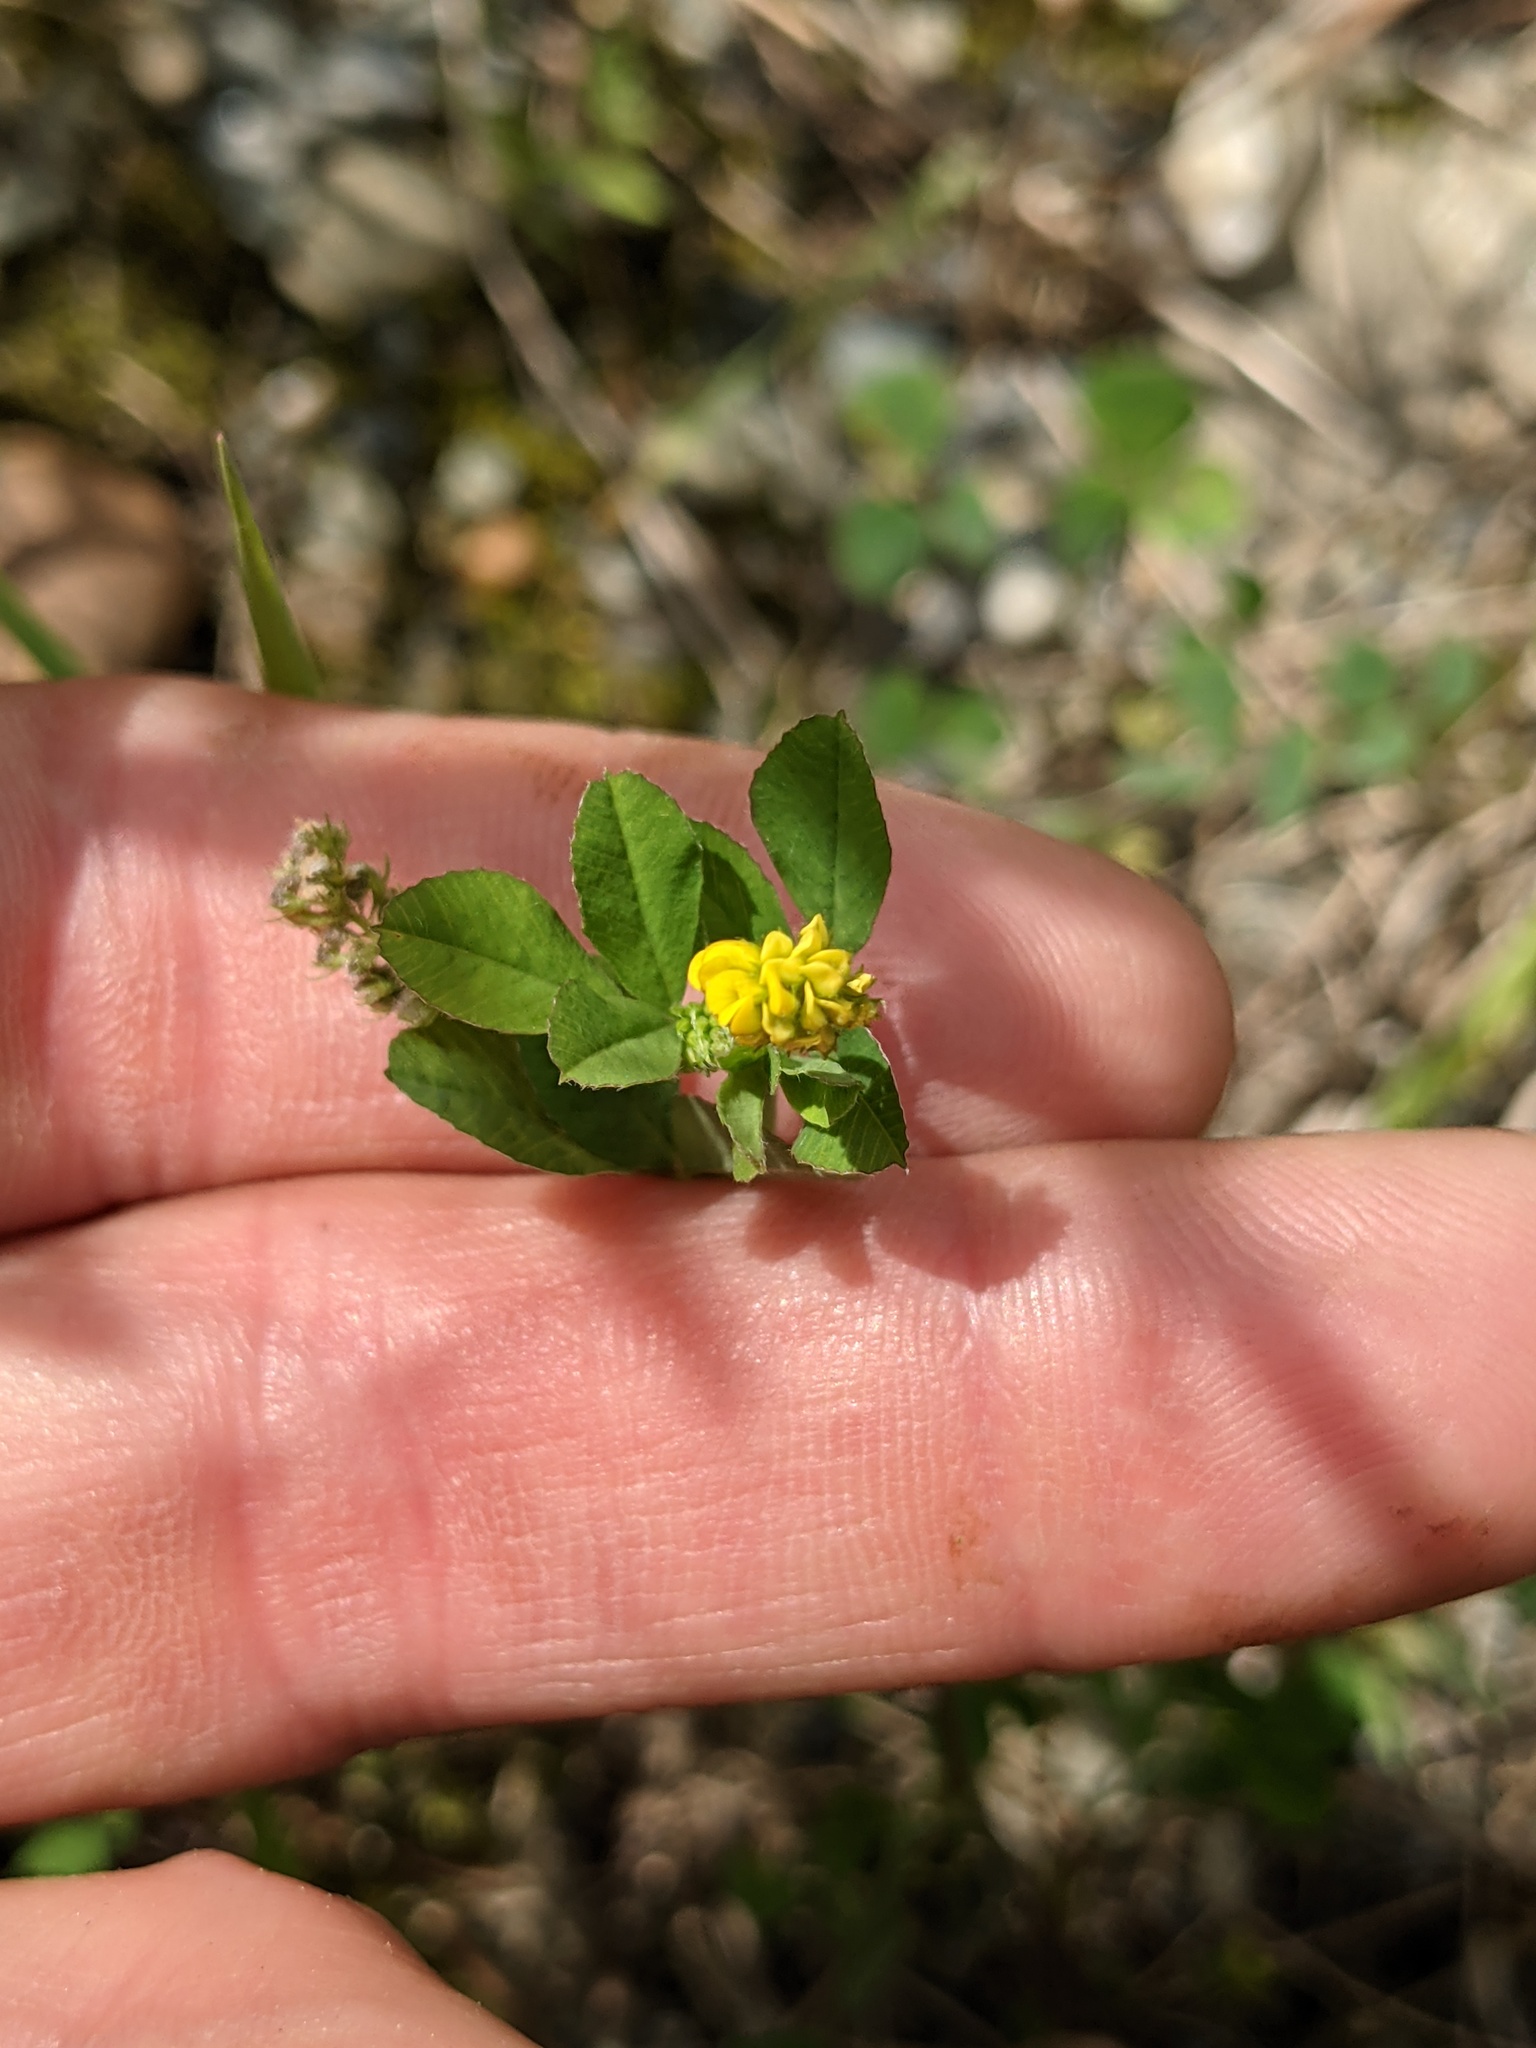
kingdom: Plantae
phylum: Tracheophyta
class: Magnoliopsida
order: Fabales
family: Fabaceae
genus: Medicago
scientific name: Medicago lupulina
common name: Black medick
